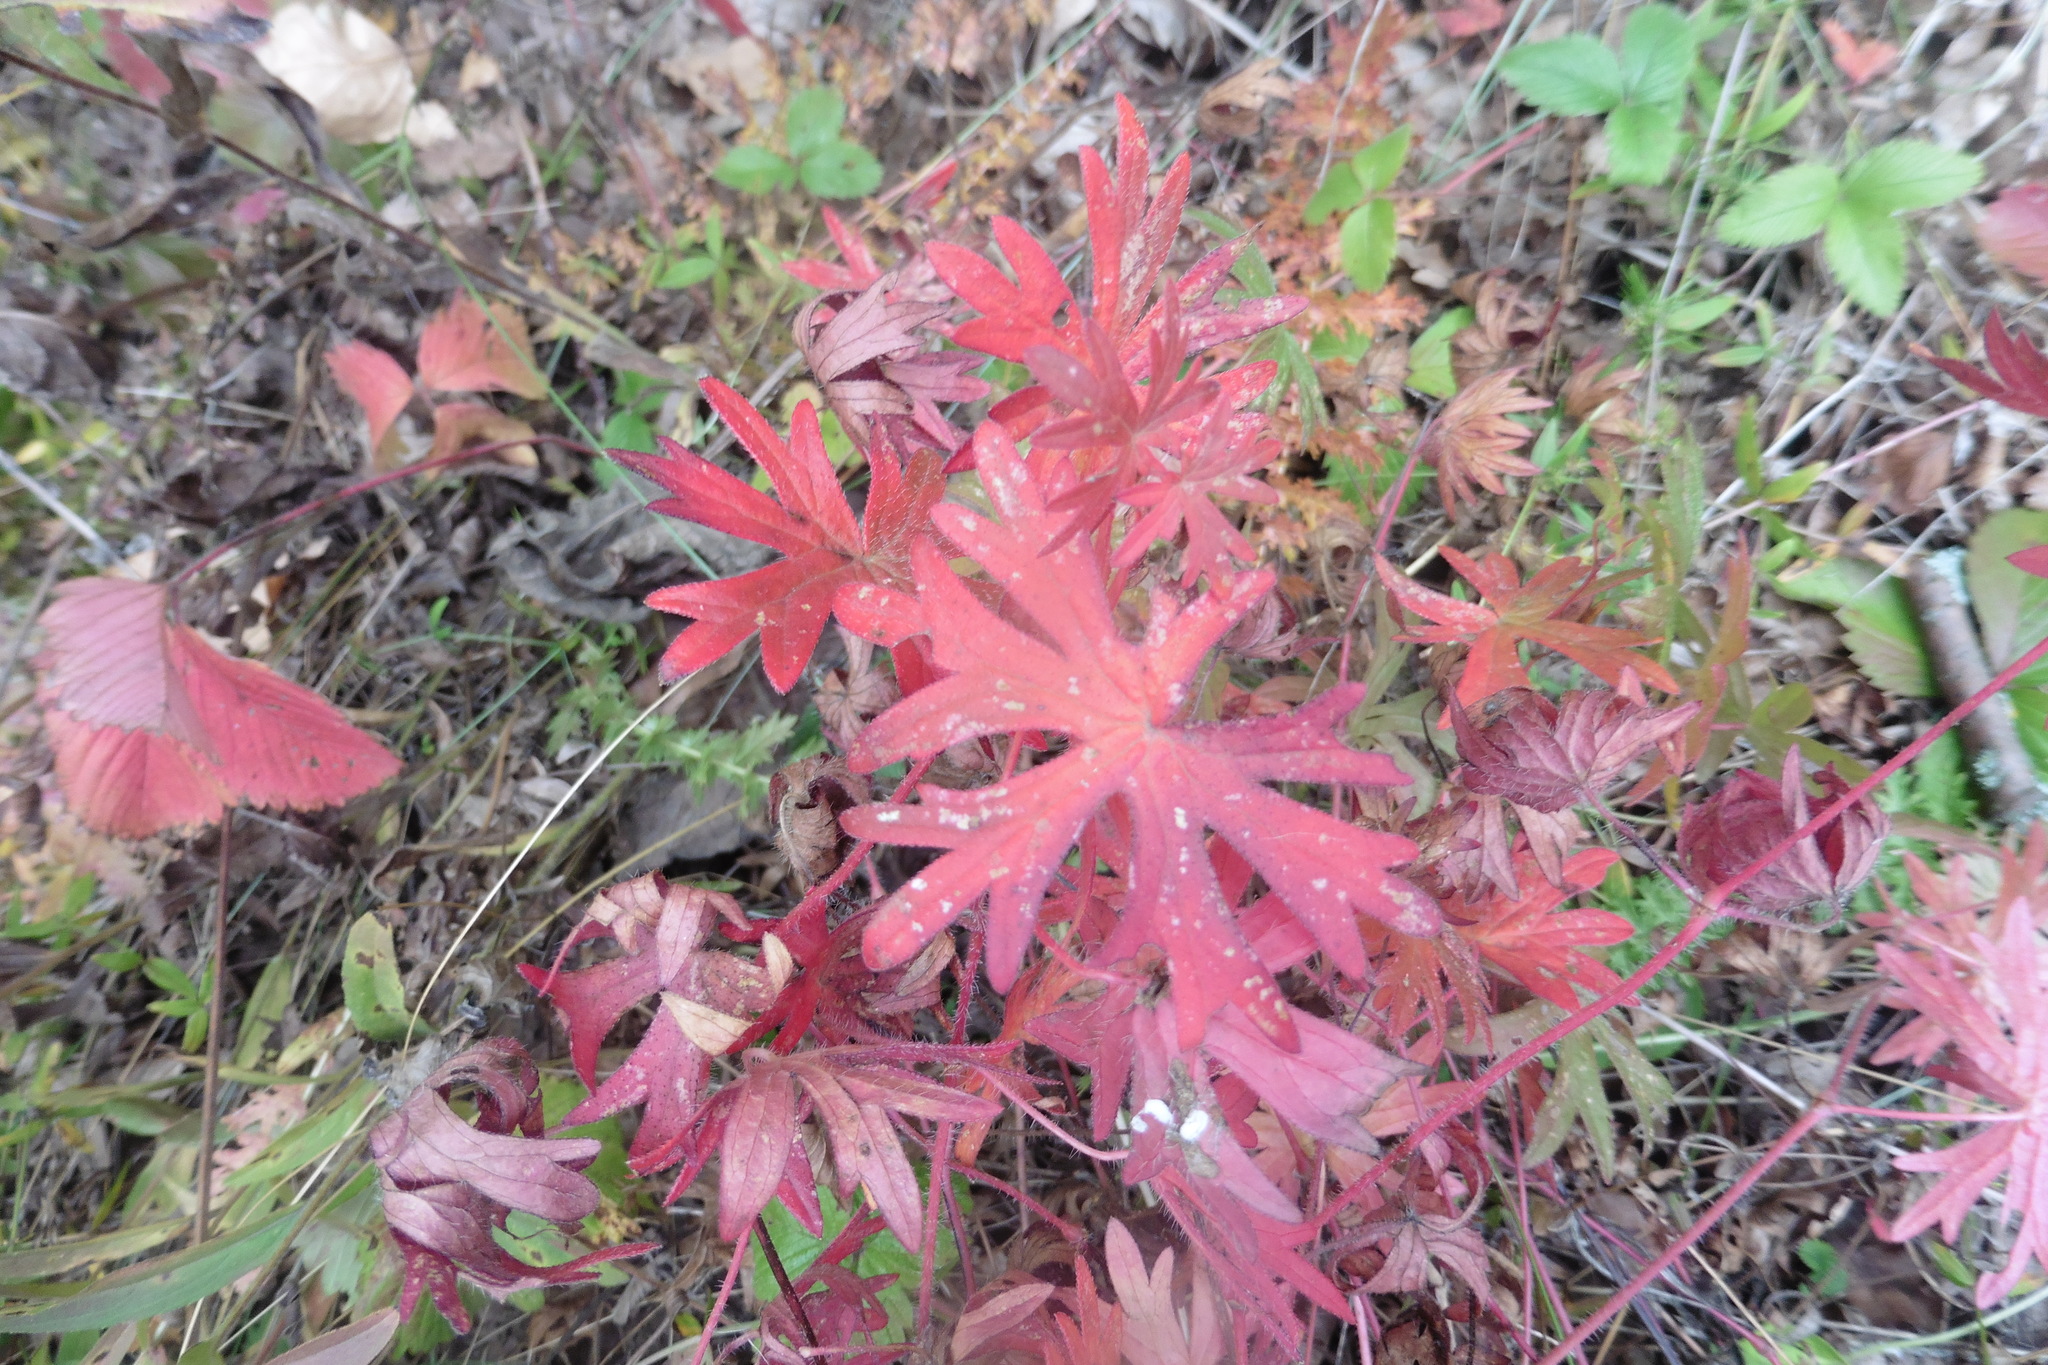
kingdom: Plantae
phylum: Tracheophyta
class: Magnoliopsida
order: Geraniales
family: Geraniaceae
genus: Geranium
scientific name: Geranium sanguineum
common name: Bloody crane's-bill
